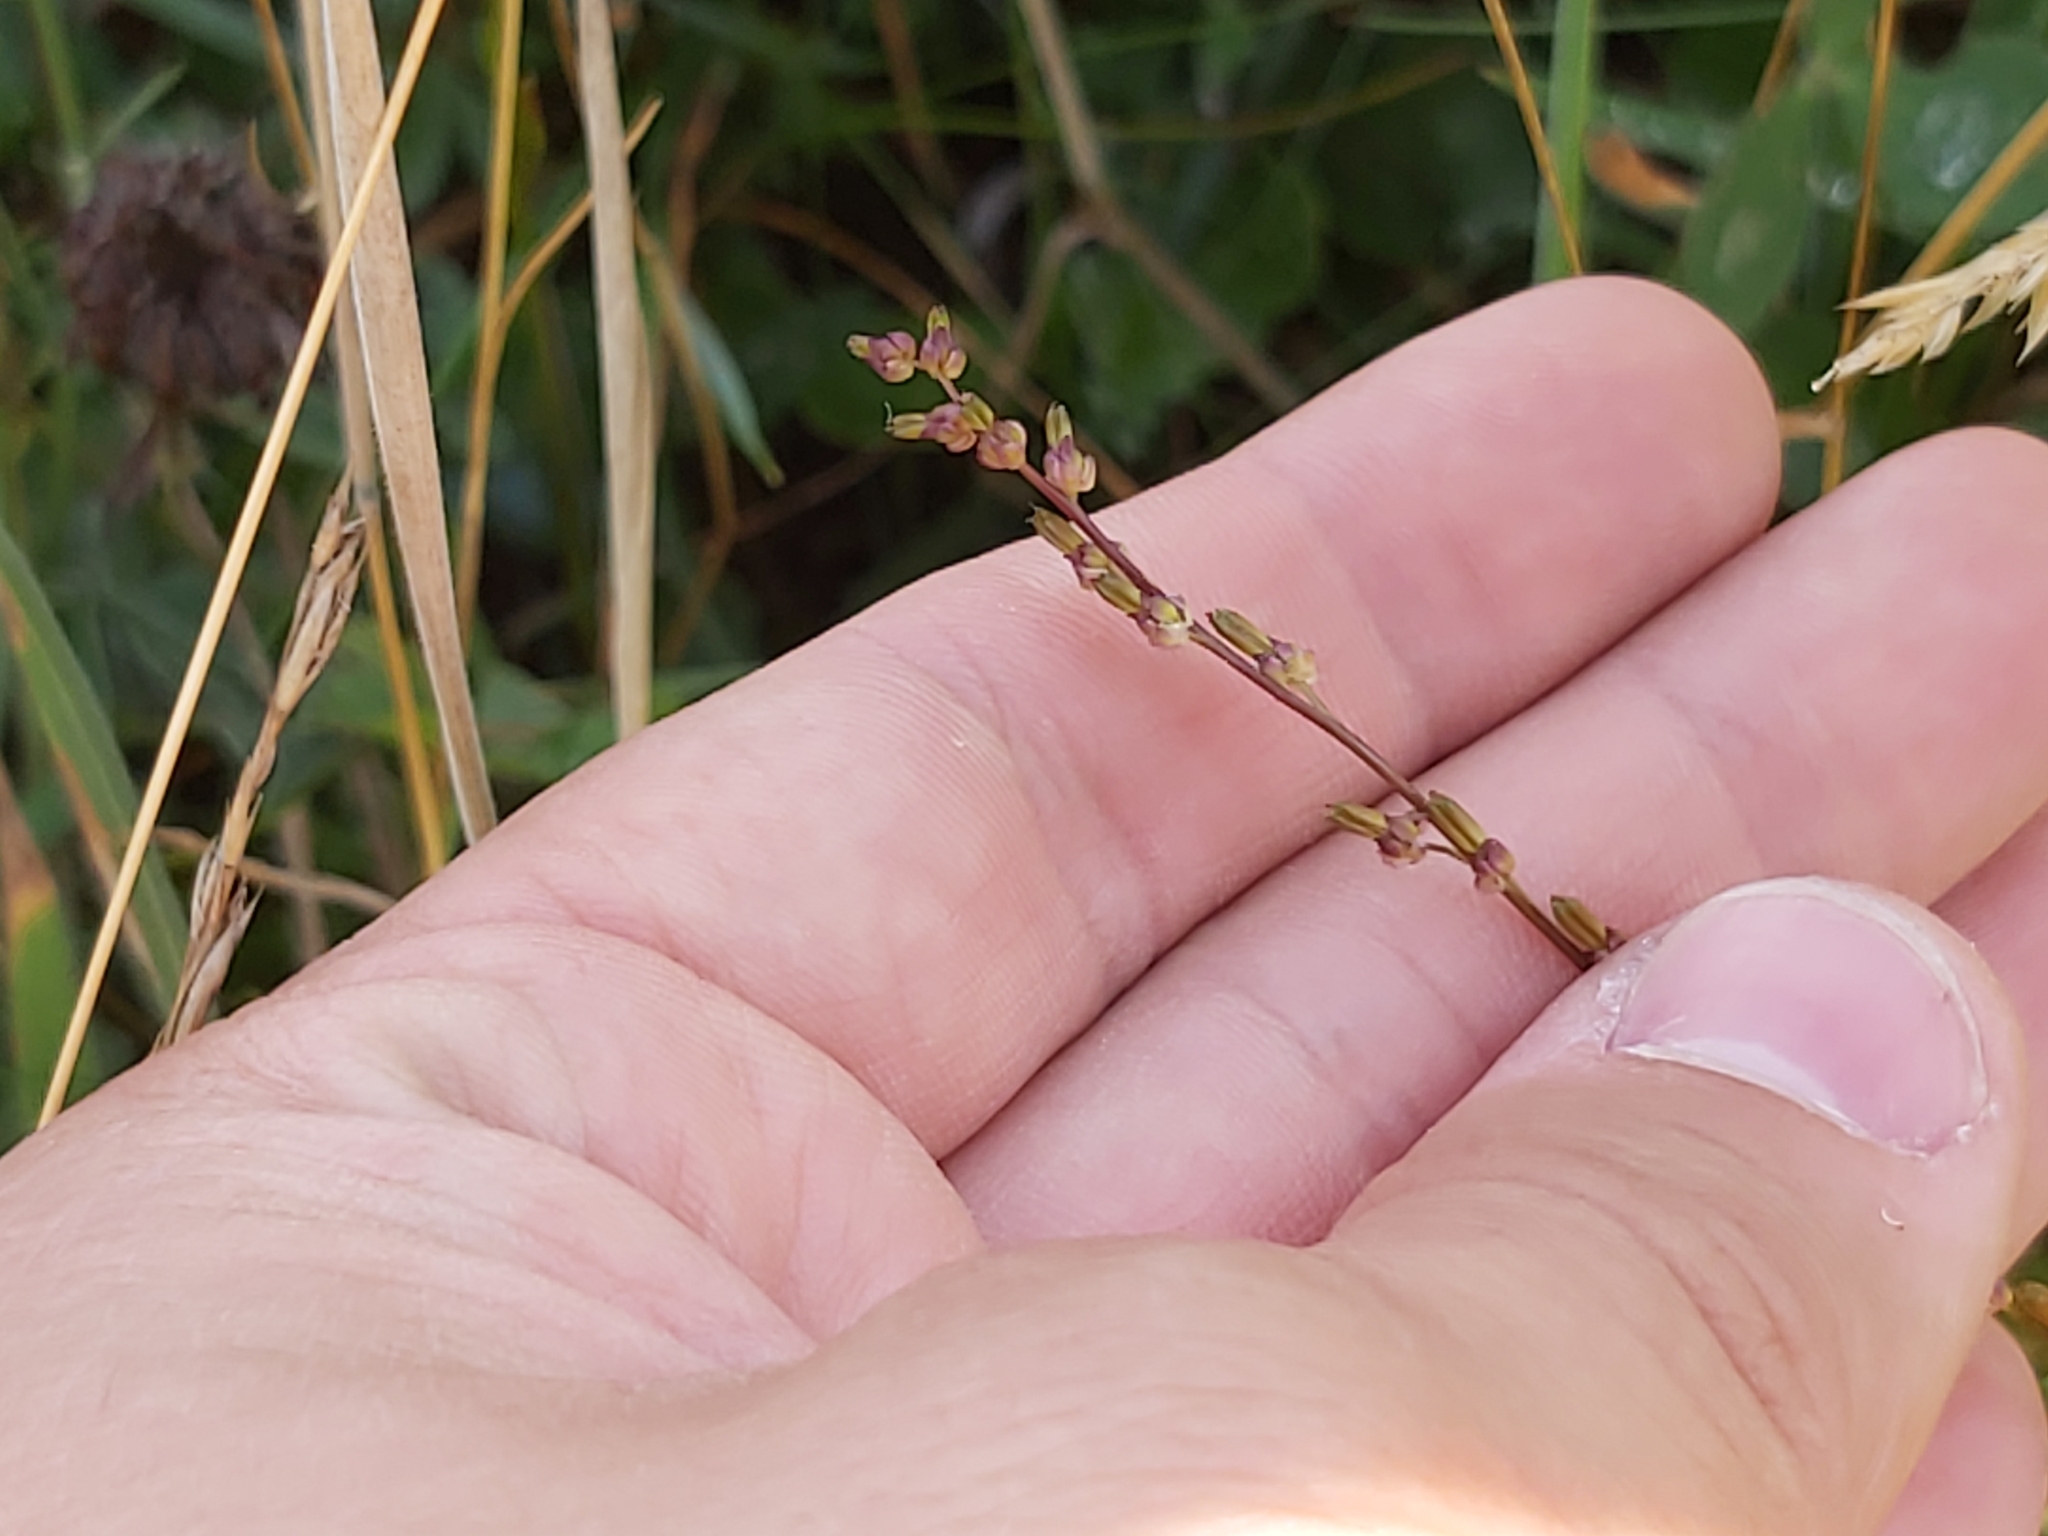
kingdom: Plantae
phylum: Tracheophyta
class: Liliopsida
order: Alismatales
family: Juncaginaceae
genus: Triglochin
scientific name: Triglochin palustris
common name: Marsh arrowgrass
